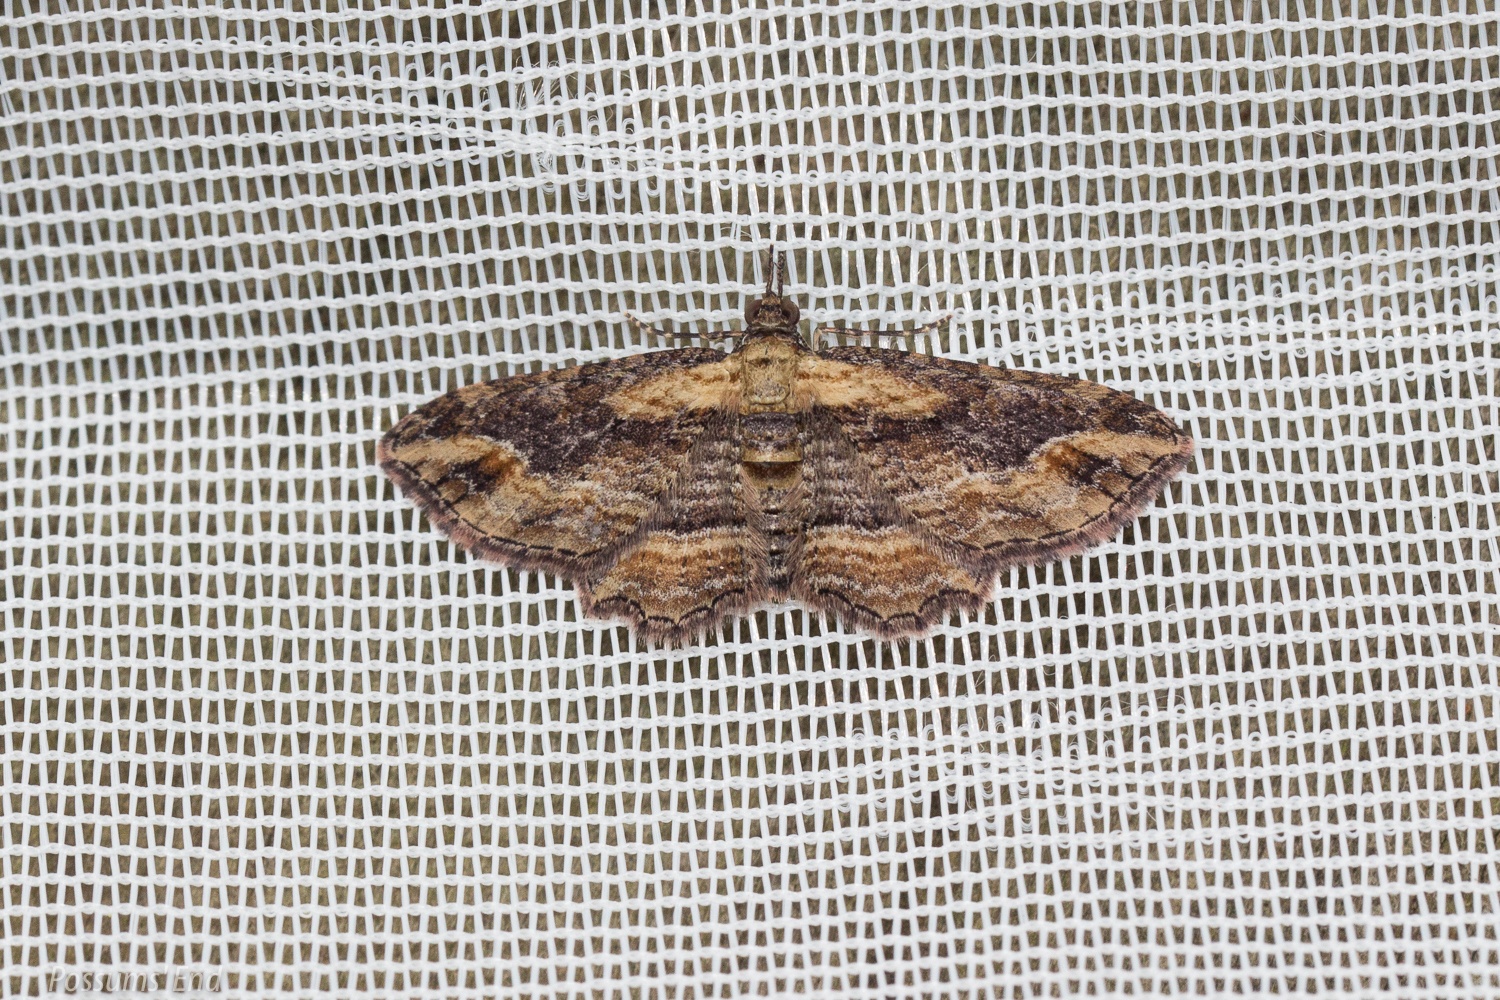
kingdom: Animalia
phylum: Arthropoda
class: Insecta
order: Lepidoptera
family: Geometridae
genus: Chloroclystis
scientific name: Chloroclystis filata
